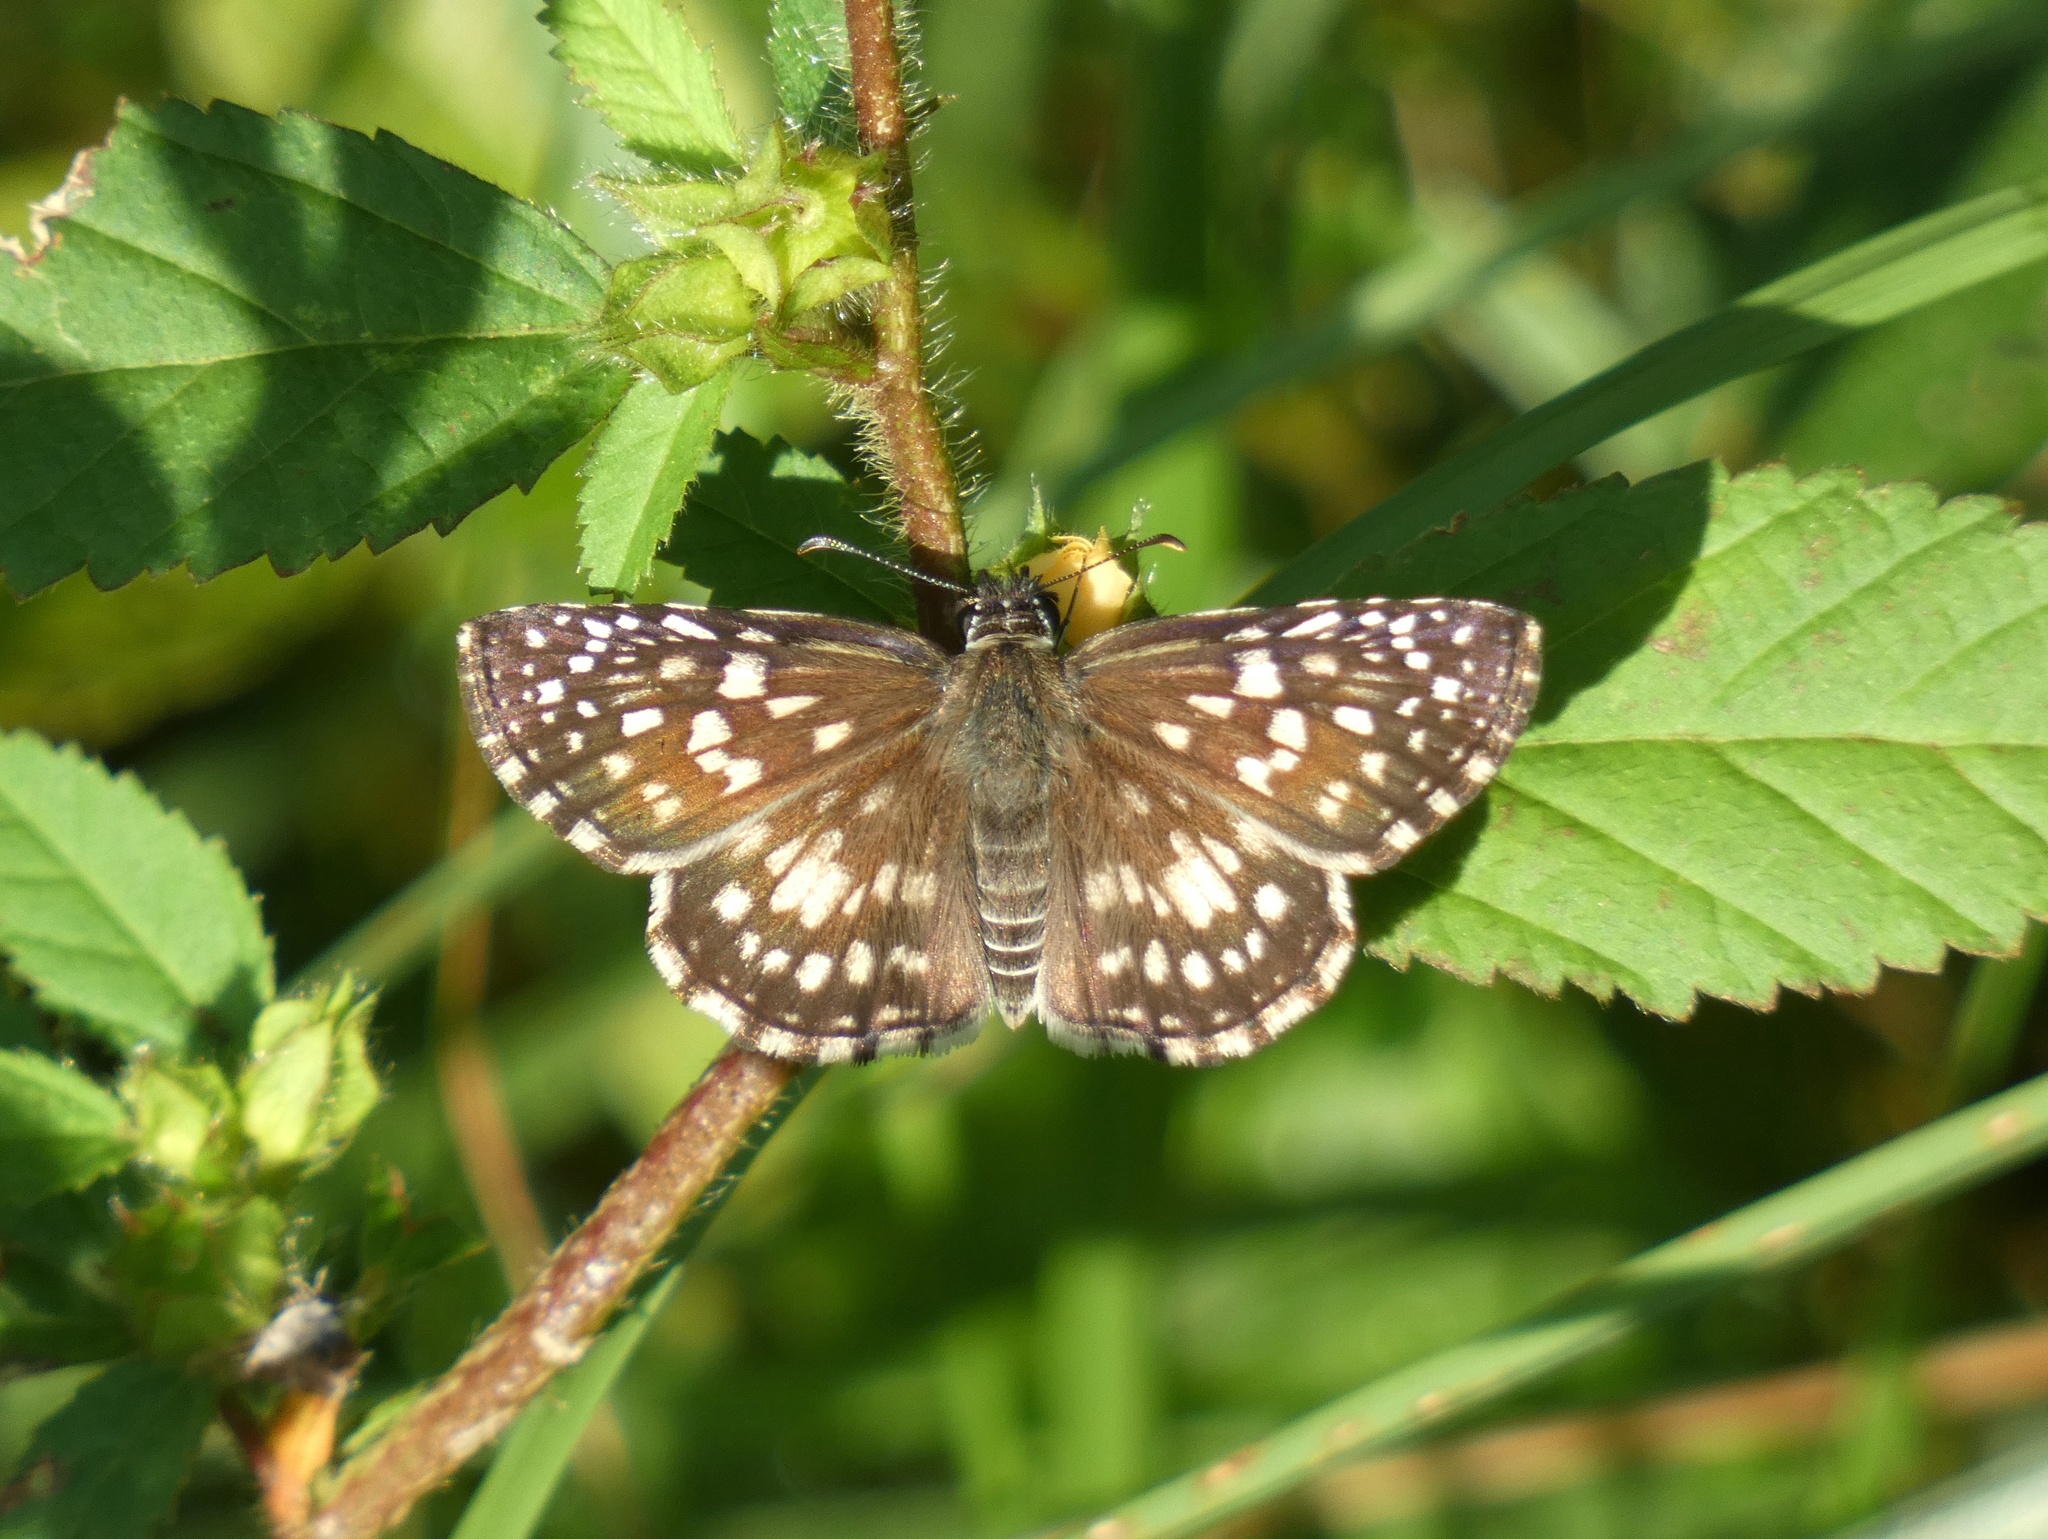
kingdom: Animalia
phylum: Arthropoda
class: Insecta
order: Lepidoptera
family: Hesperiidae
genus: Pyrgus
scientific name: Pyrgus oileus
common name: Tropical checkered-skipper
